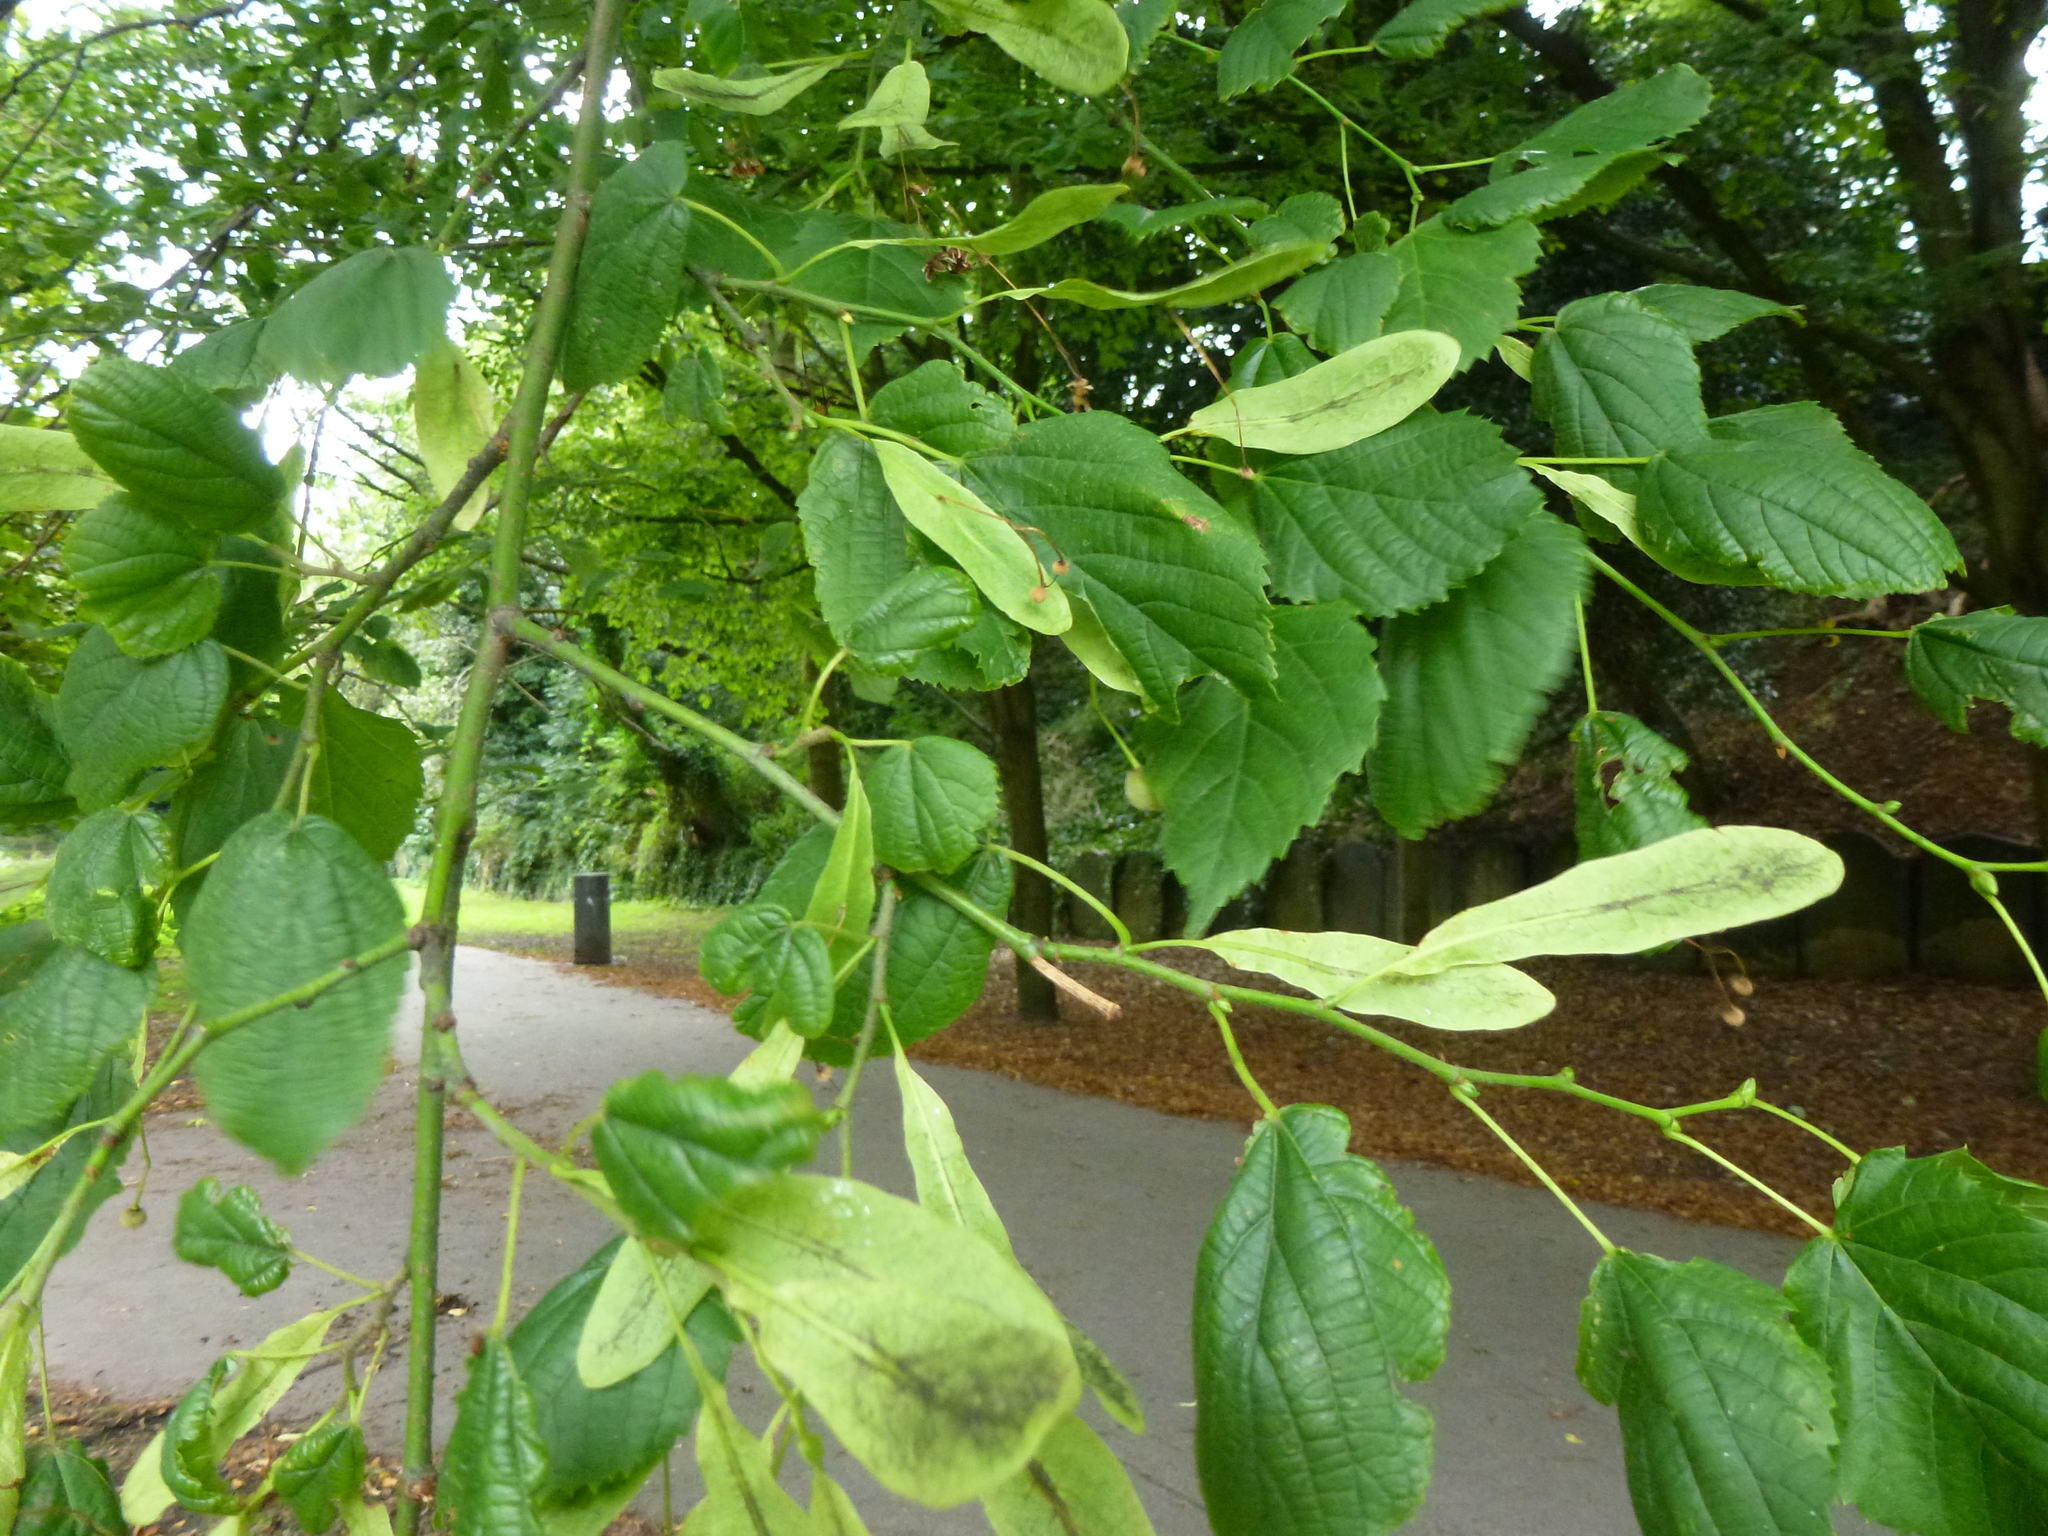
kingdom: Plantae
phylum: Tracheophyta
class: Magnoliopsida
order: Malvales
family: Malvaceae
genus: Tilia
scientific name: Tilia europaea
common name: European linden
